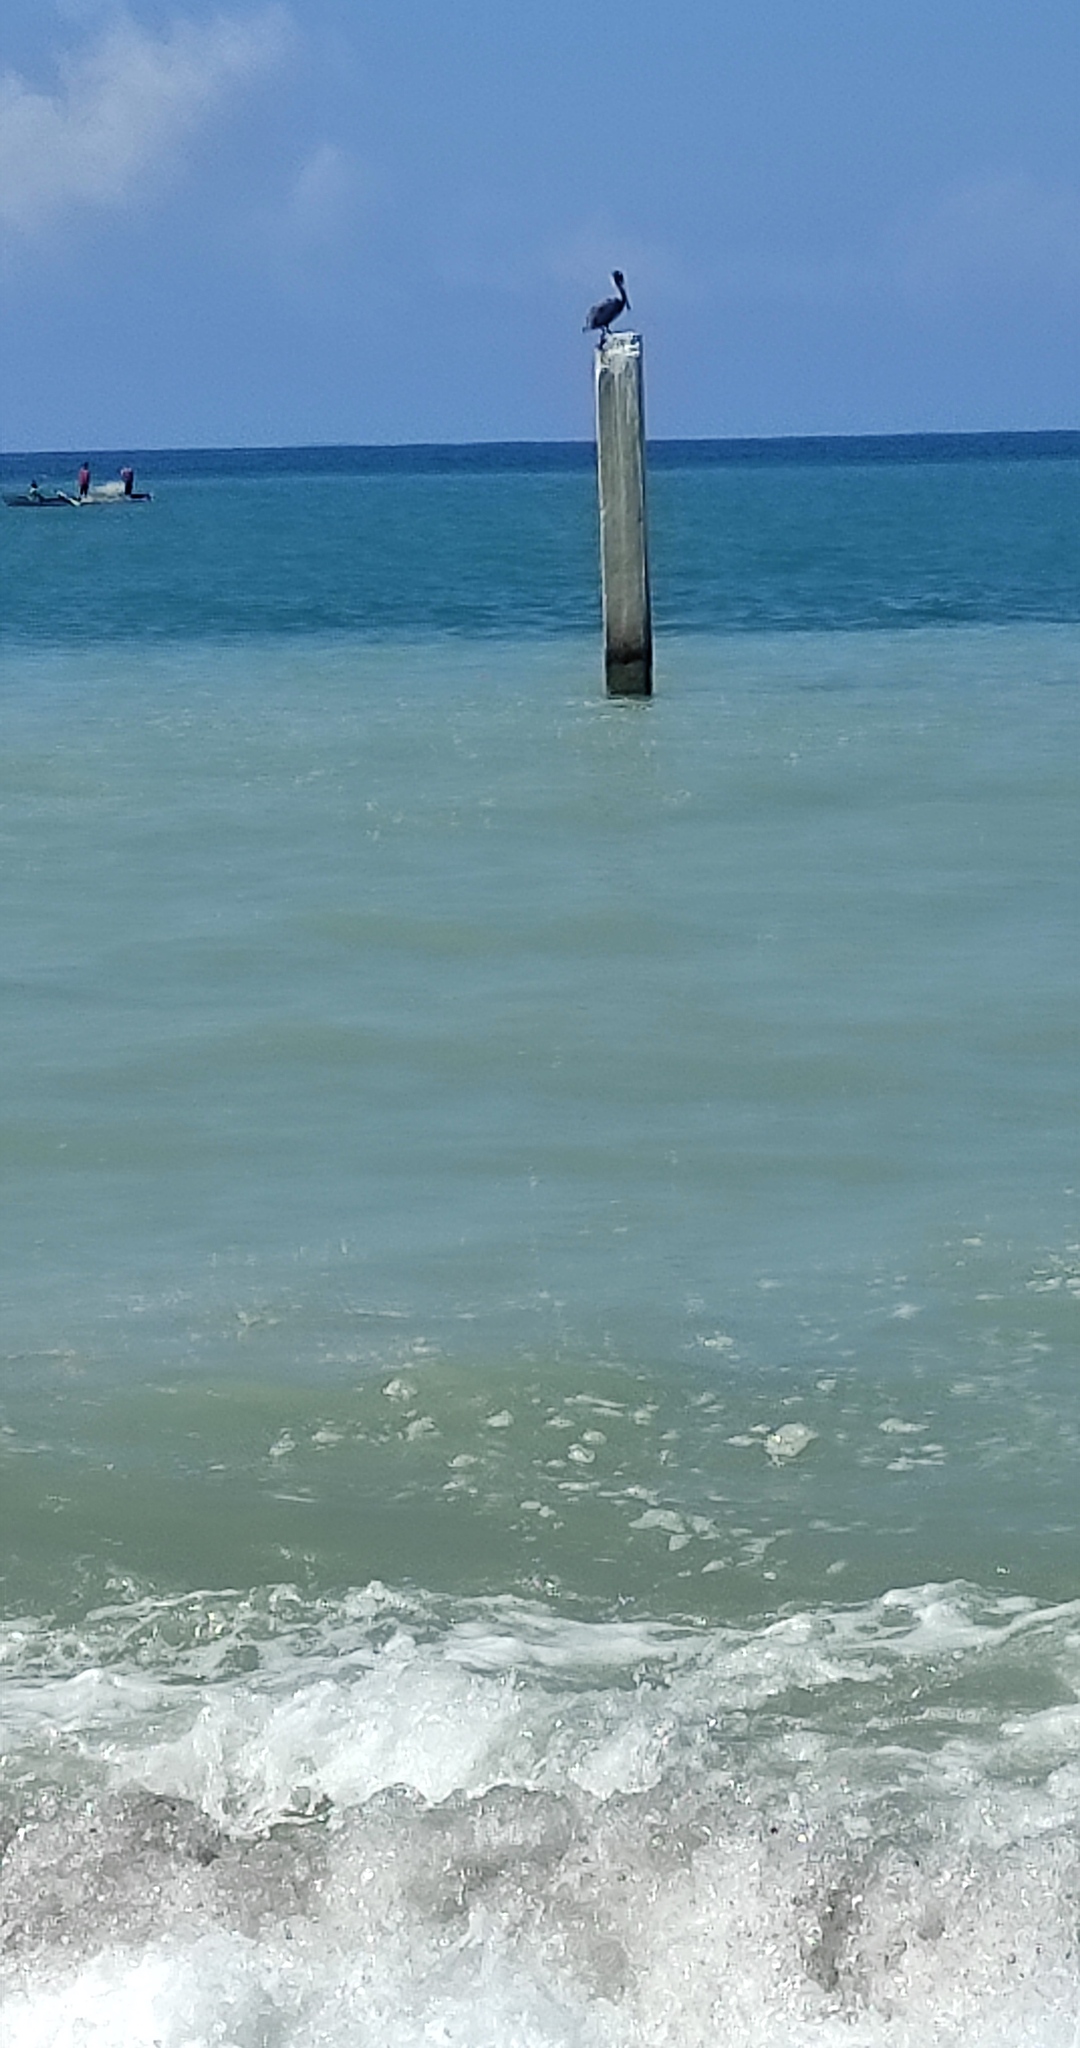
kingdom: Animalia
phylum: Chordata
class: Aves
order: Pelecaniformes
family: Pelecanidae
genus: Pelecanus
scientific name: Pelecanus occidentalis
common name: Brown pelican
